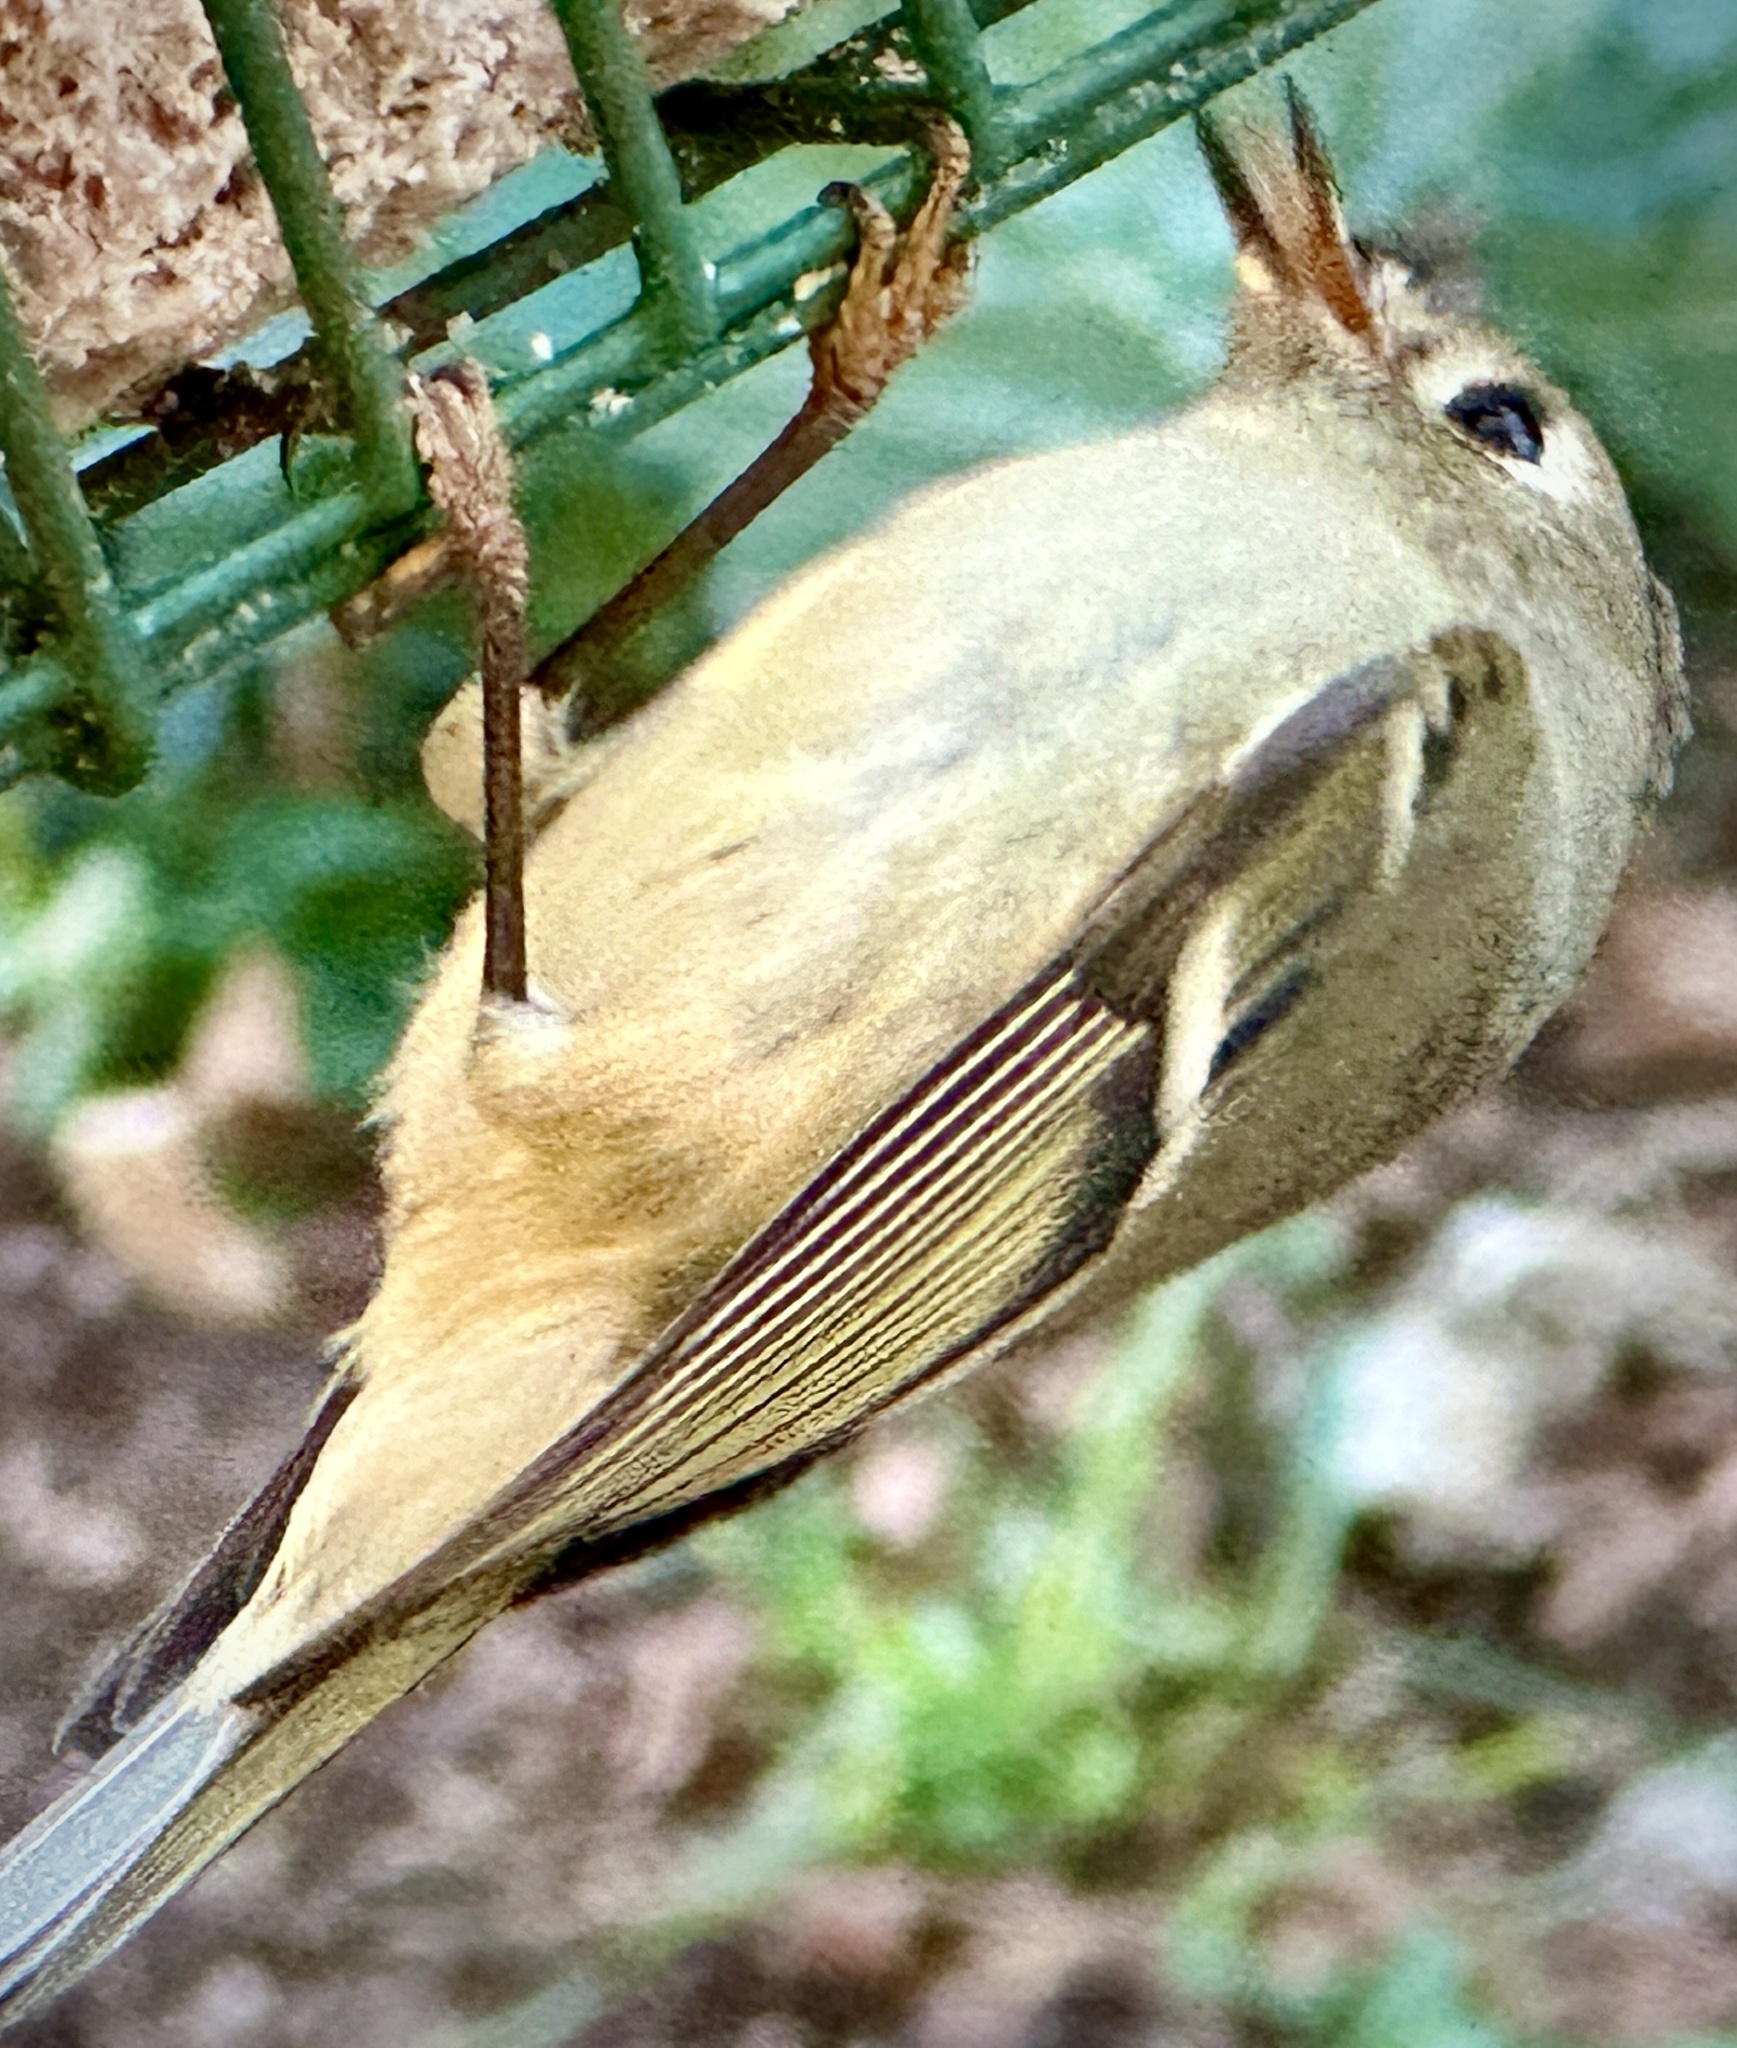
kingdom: Animalia
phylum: Chordata
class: Aves
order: Passeriformes
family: Regulidae
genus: Regulus
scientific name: Regulus calendula
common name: Ruby-crowned kinglet
